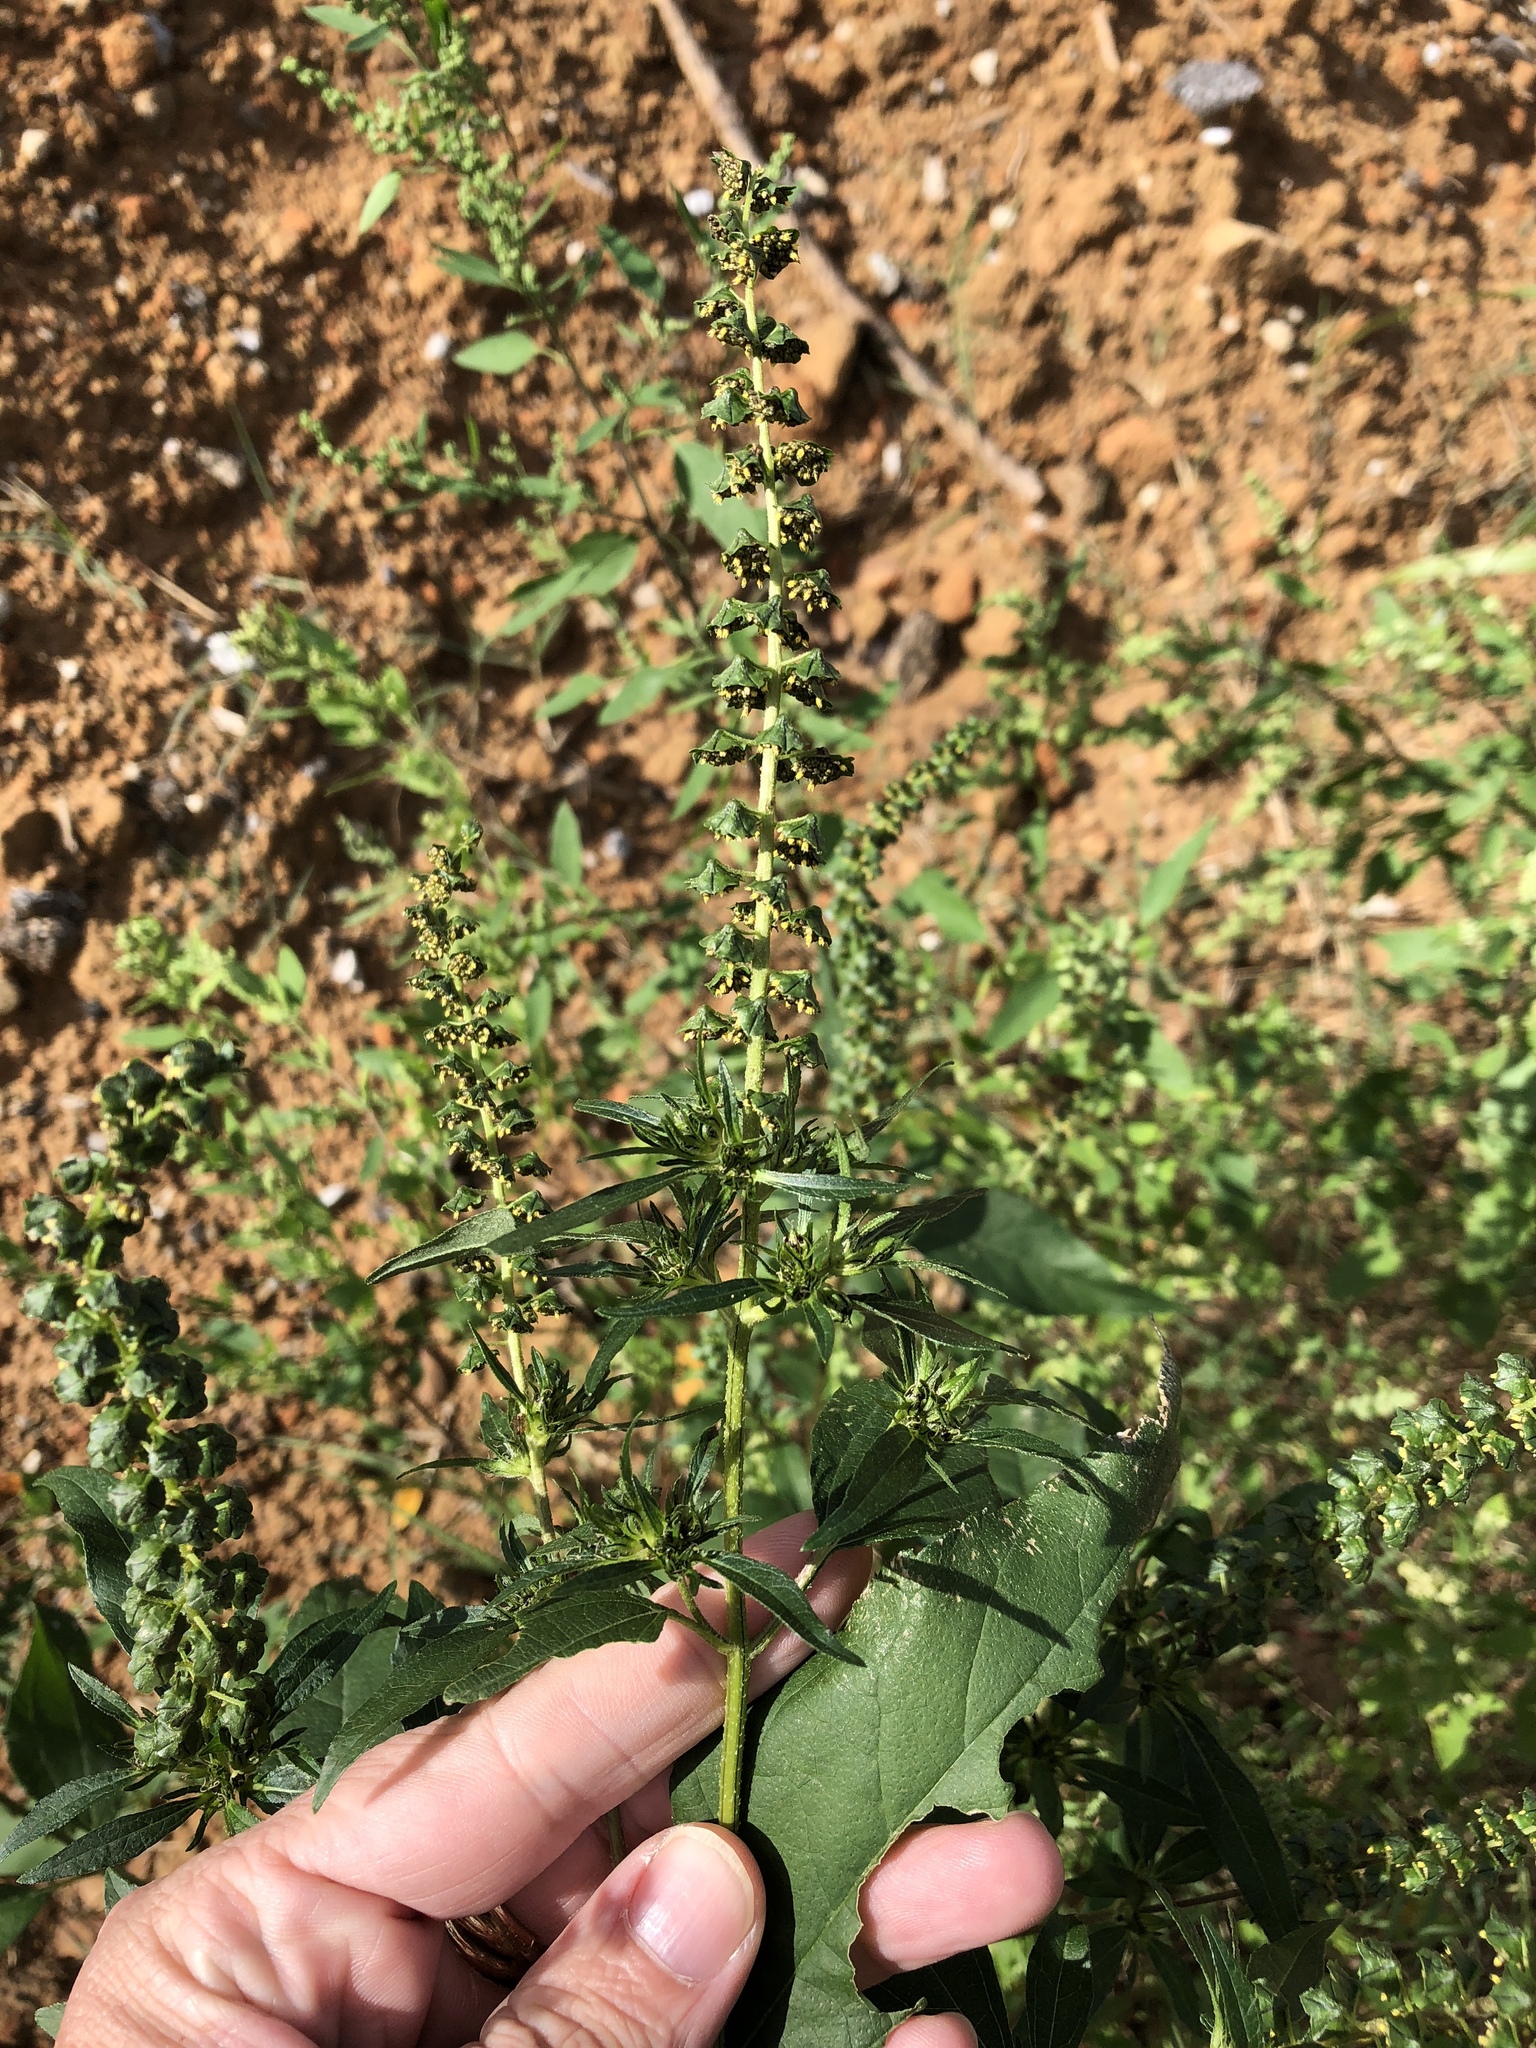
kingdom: Plantae
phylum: Tracheophyta
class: Magnoliopsida
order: Asterales
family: Asteraceae
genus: Ambrosia
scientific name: Ambrosia trifida
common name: Giant ragweed
